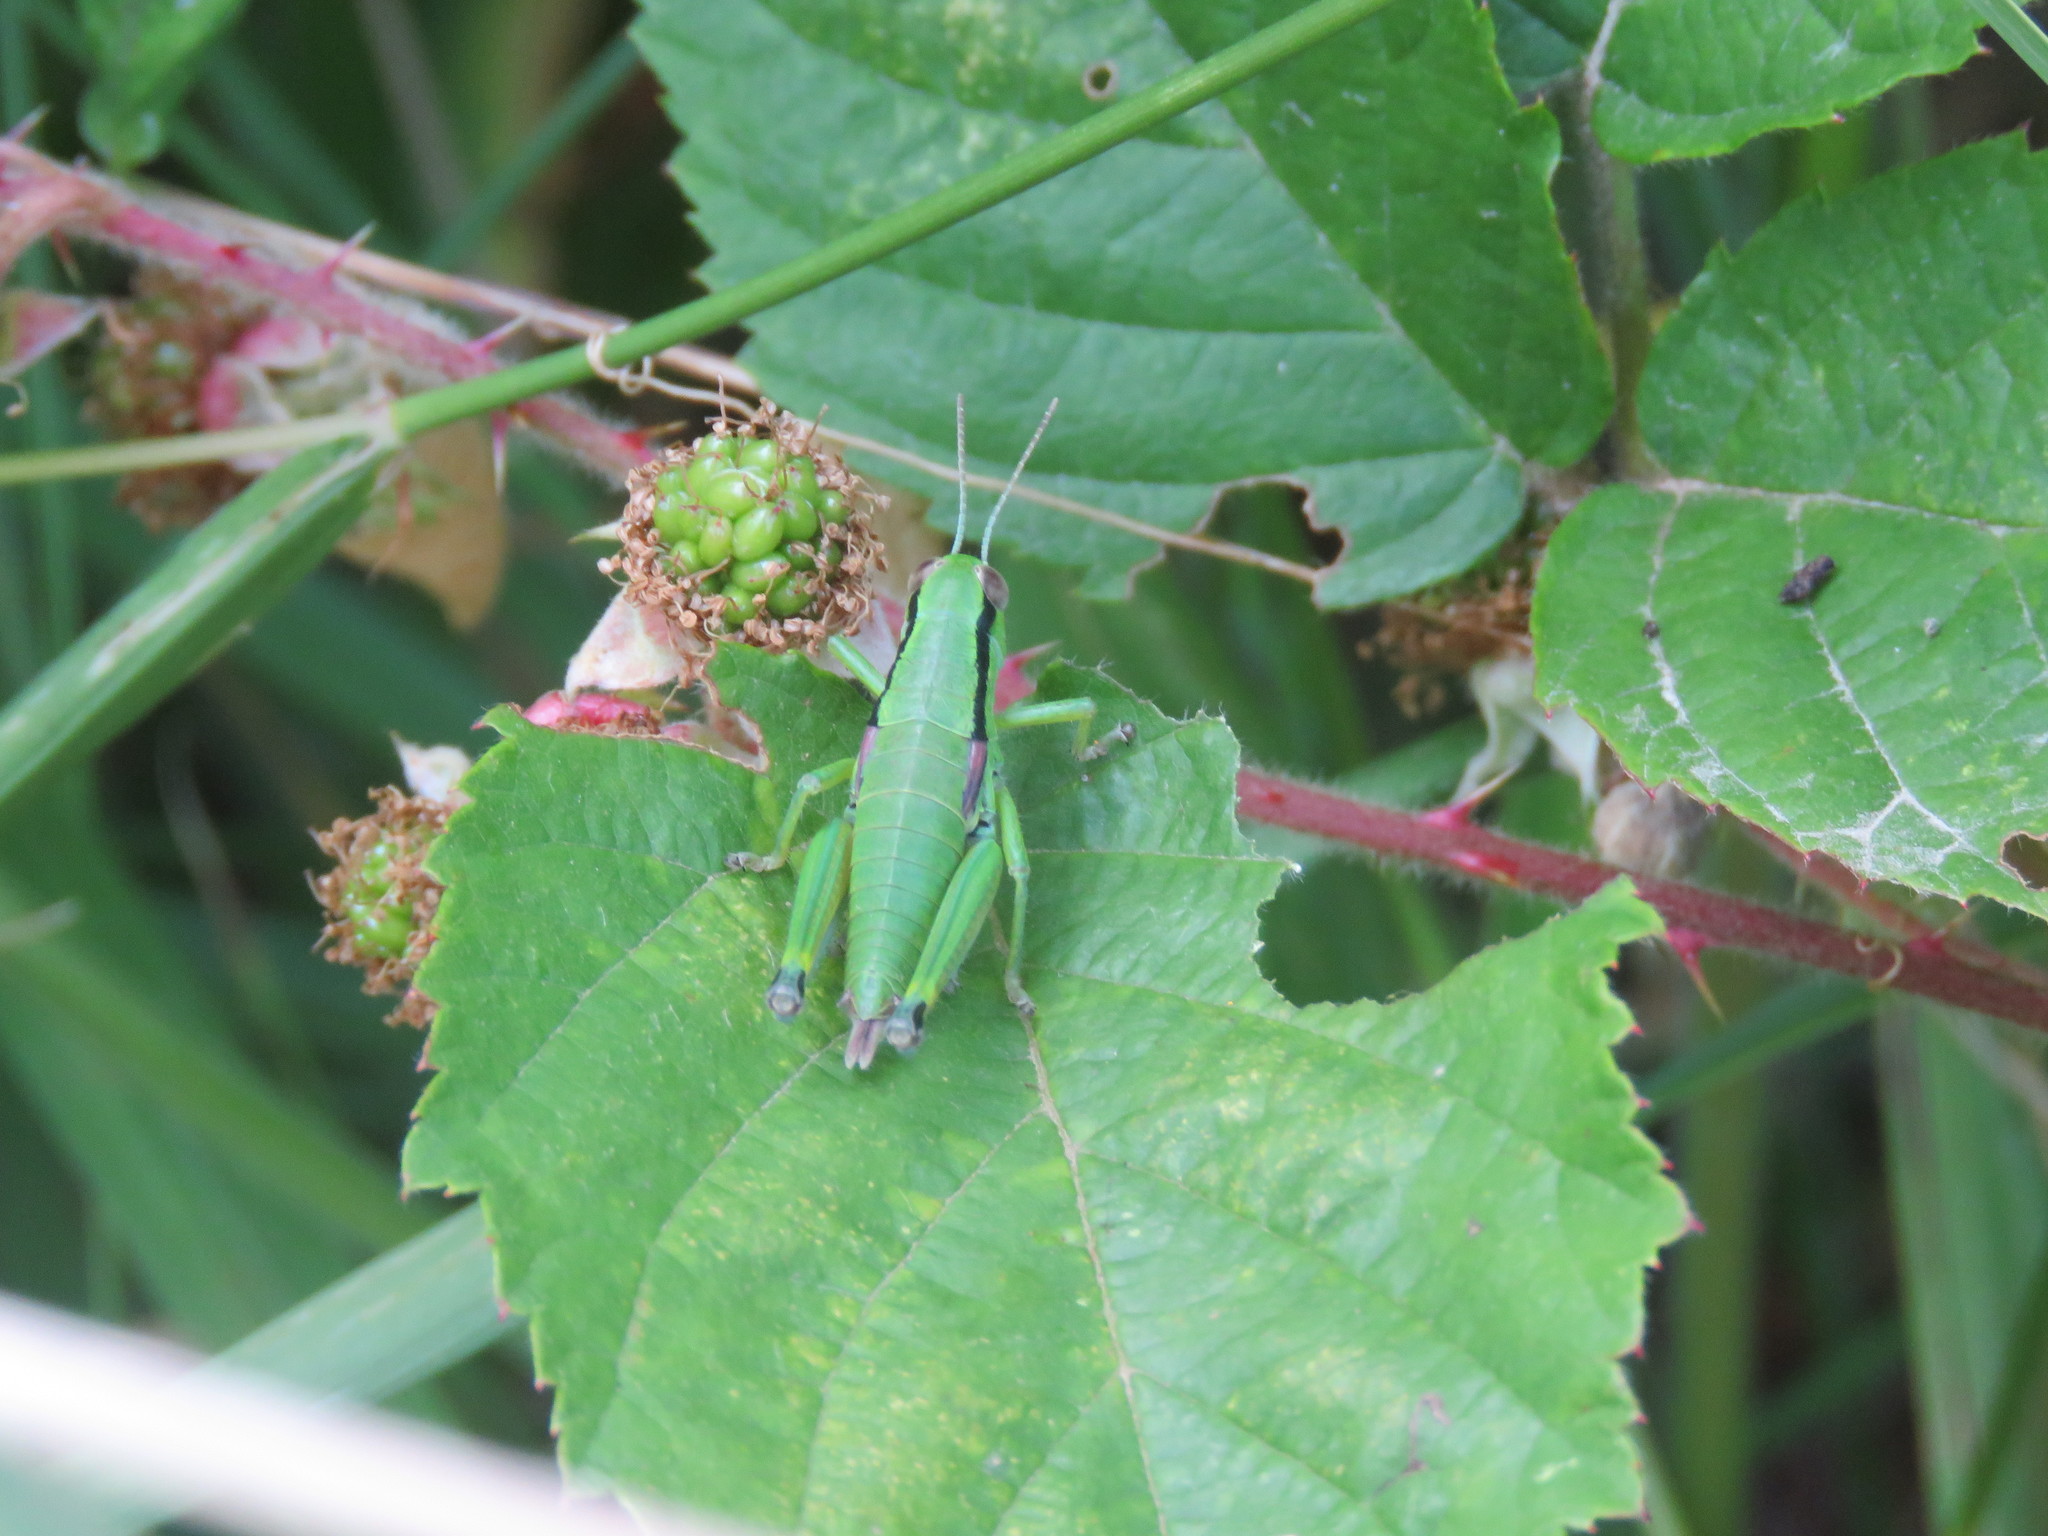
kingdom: Animalia
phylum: Arthropoda
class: Insecta
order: Orthoptera
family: Acrididae
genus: Odontopodisma
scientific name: Odontopodisma decipiens
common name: Cheating mountain grasshopper
